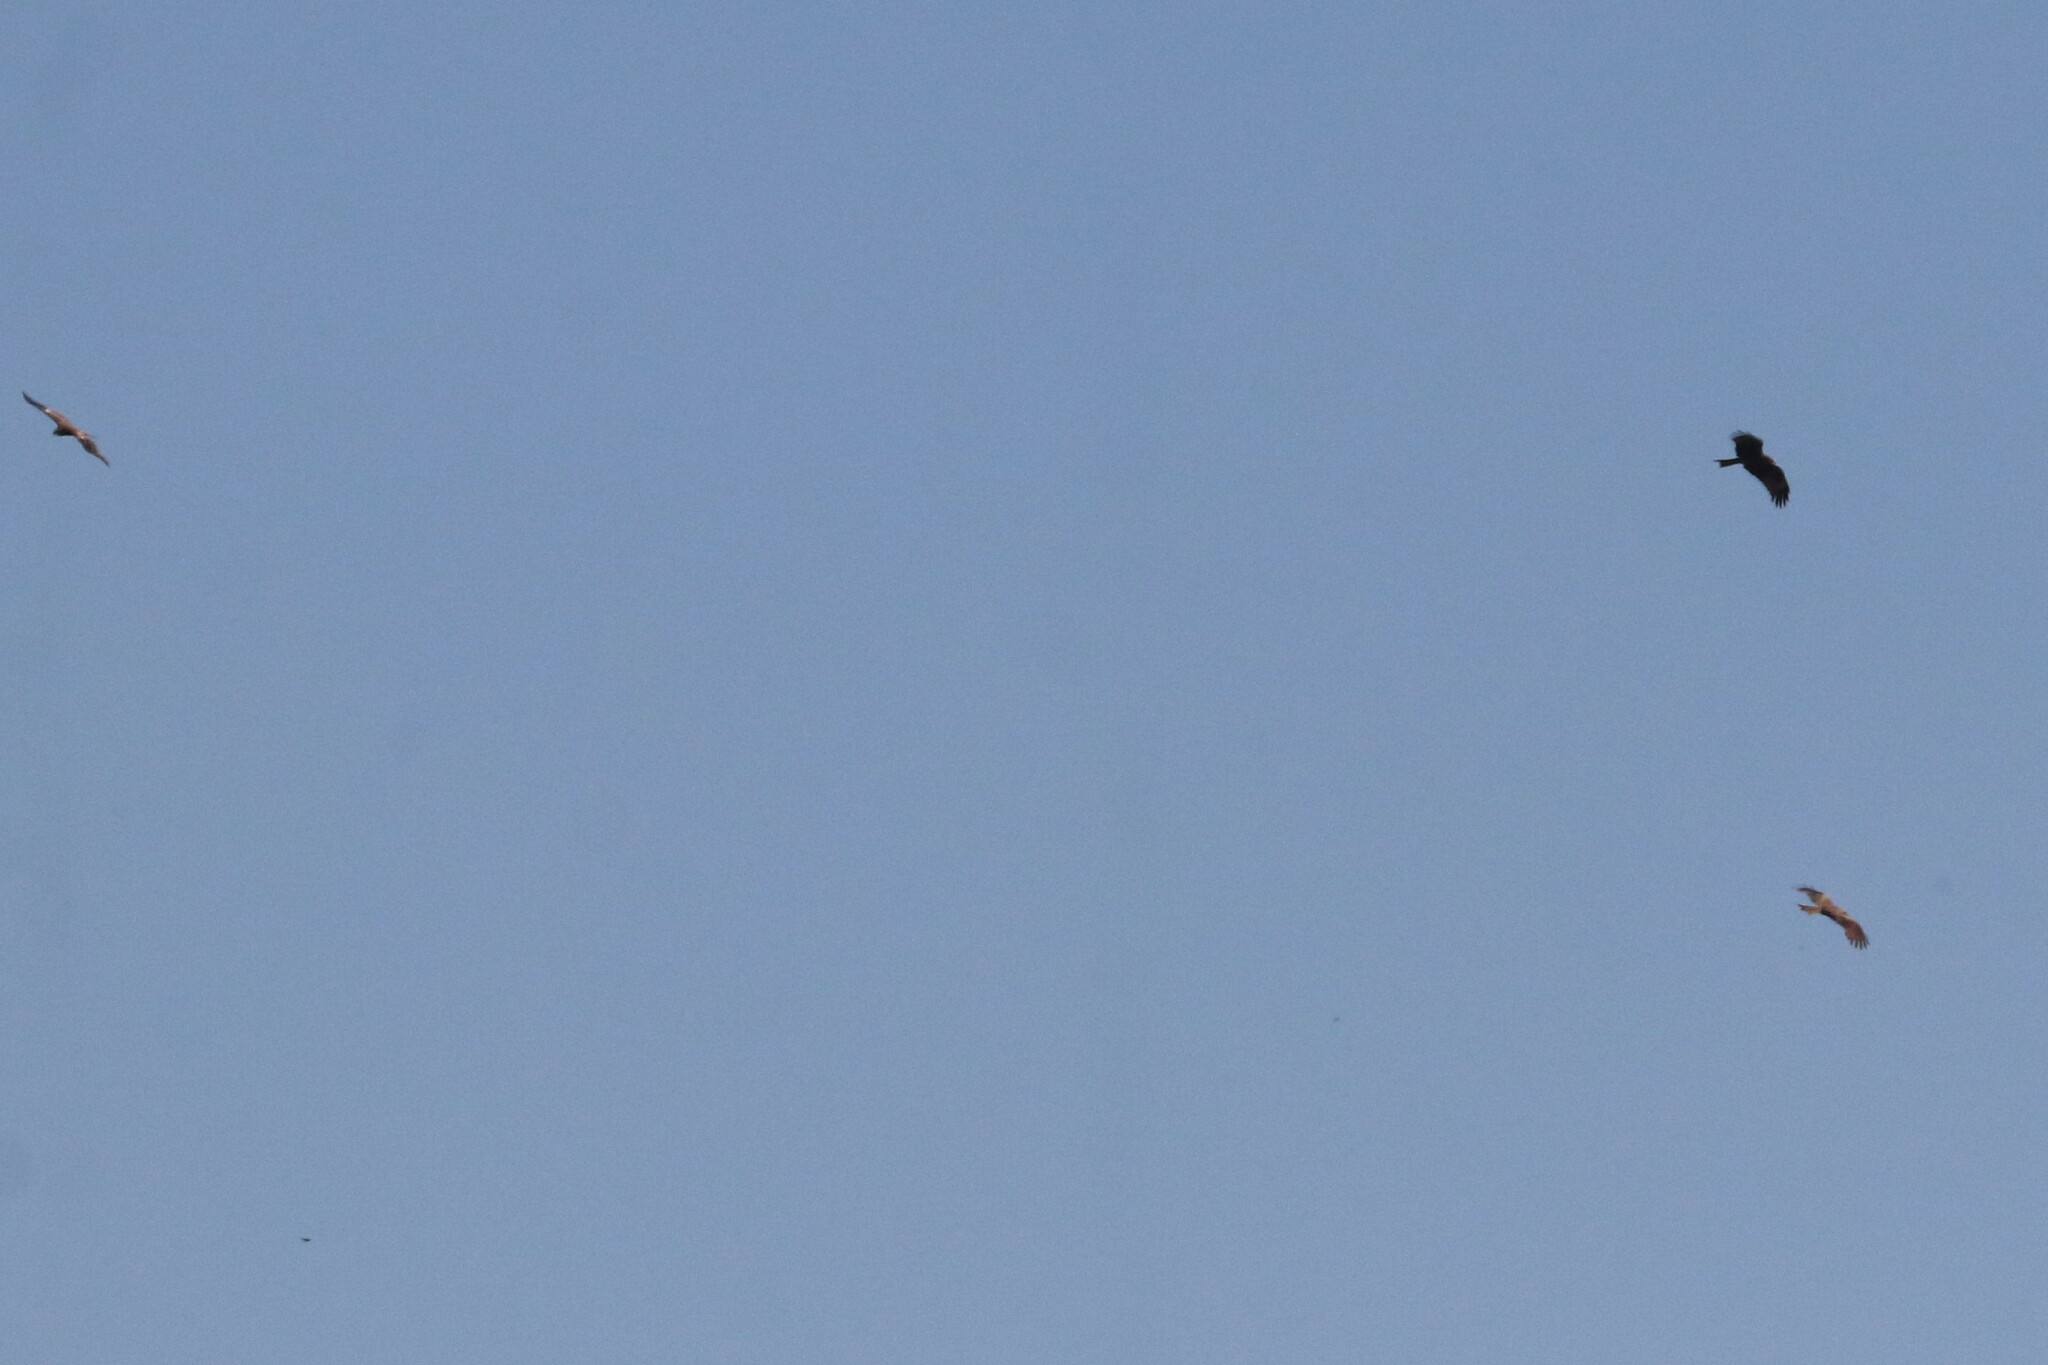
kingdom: Animalia
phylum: Chordata
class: Aves
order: Accipitriformes
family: Accipitridae
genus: Milvus
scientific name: Milvus migrans
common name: Black kite
